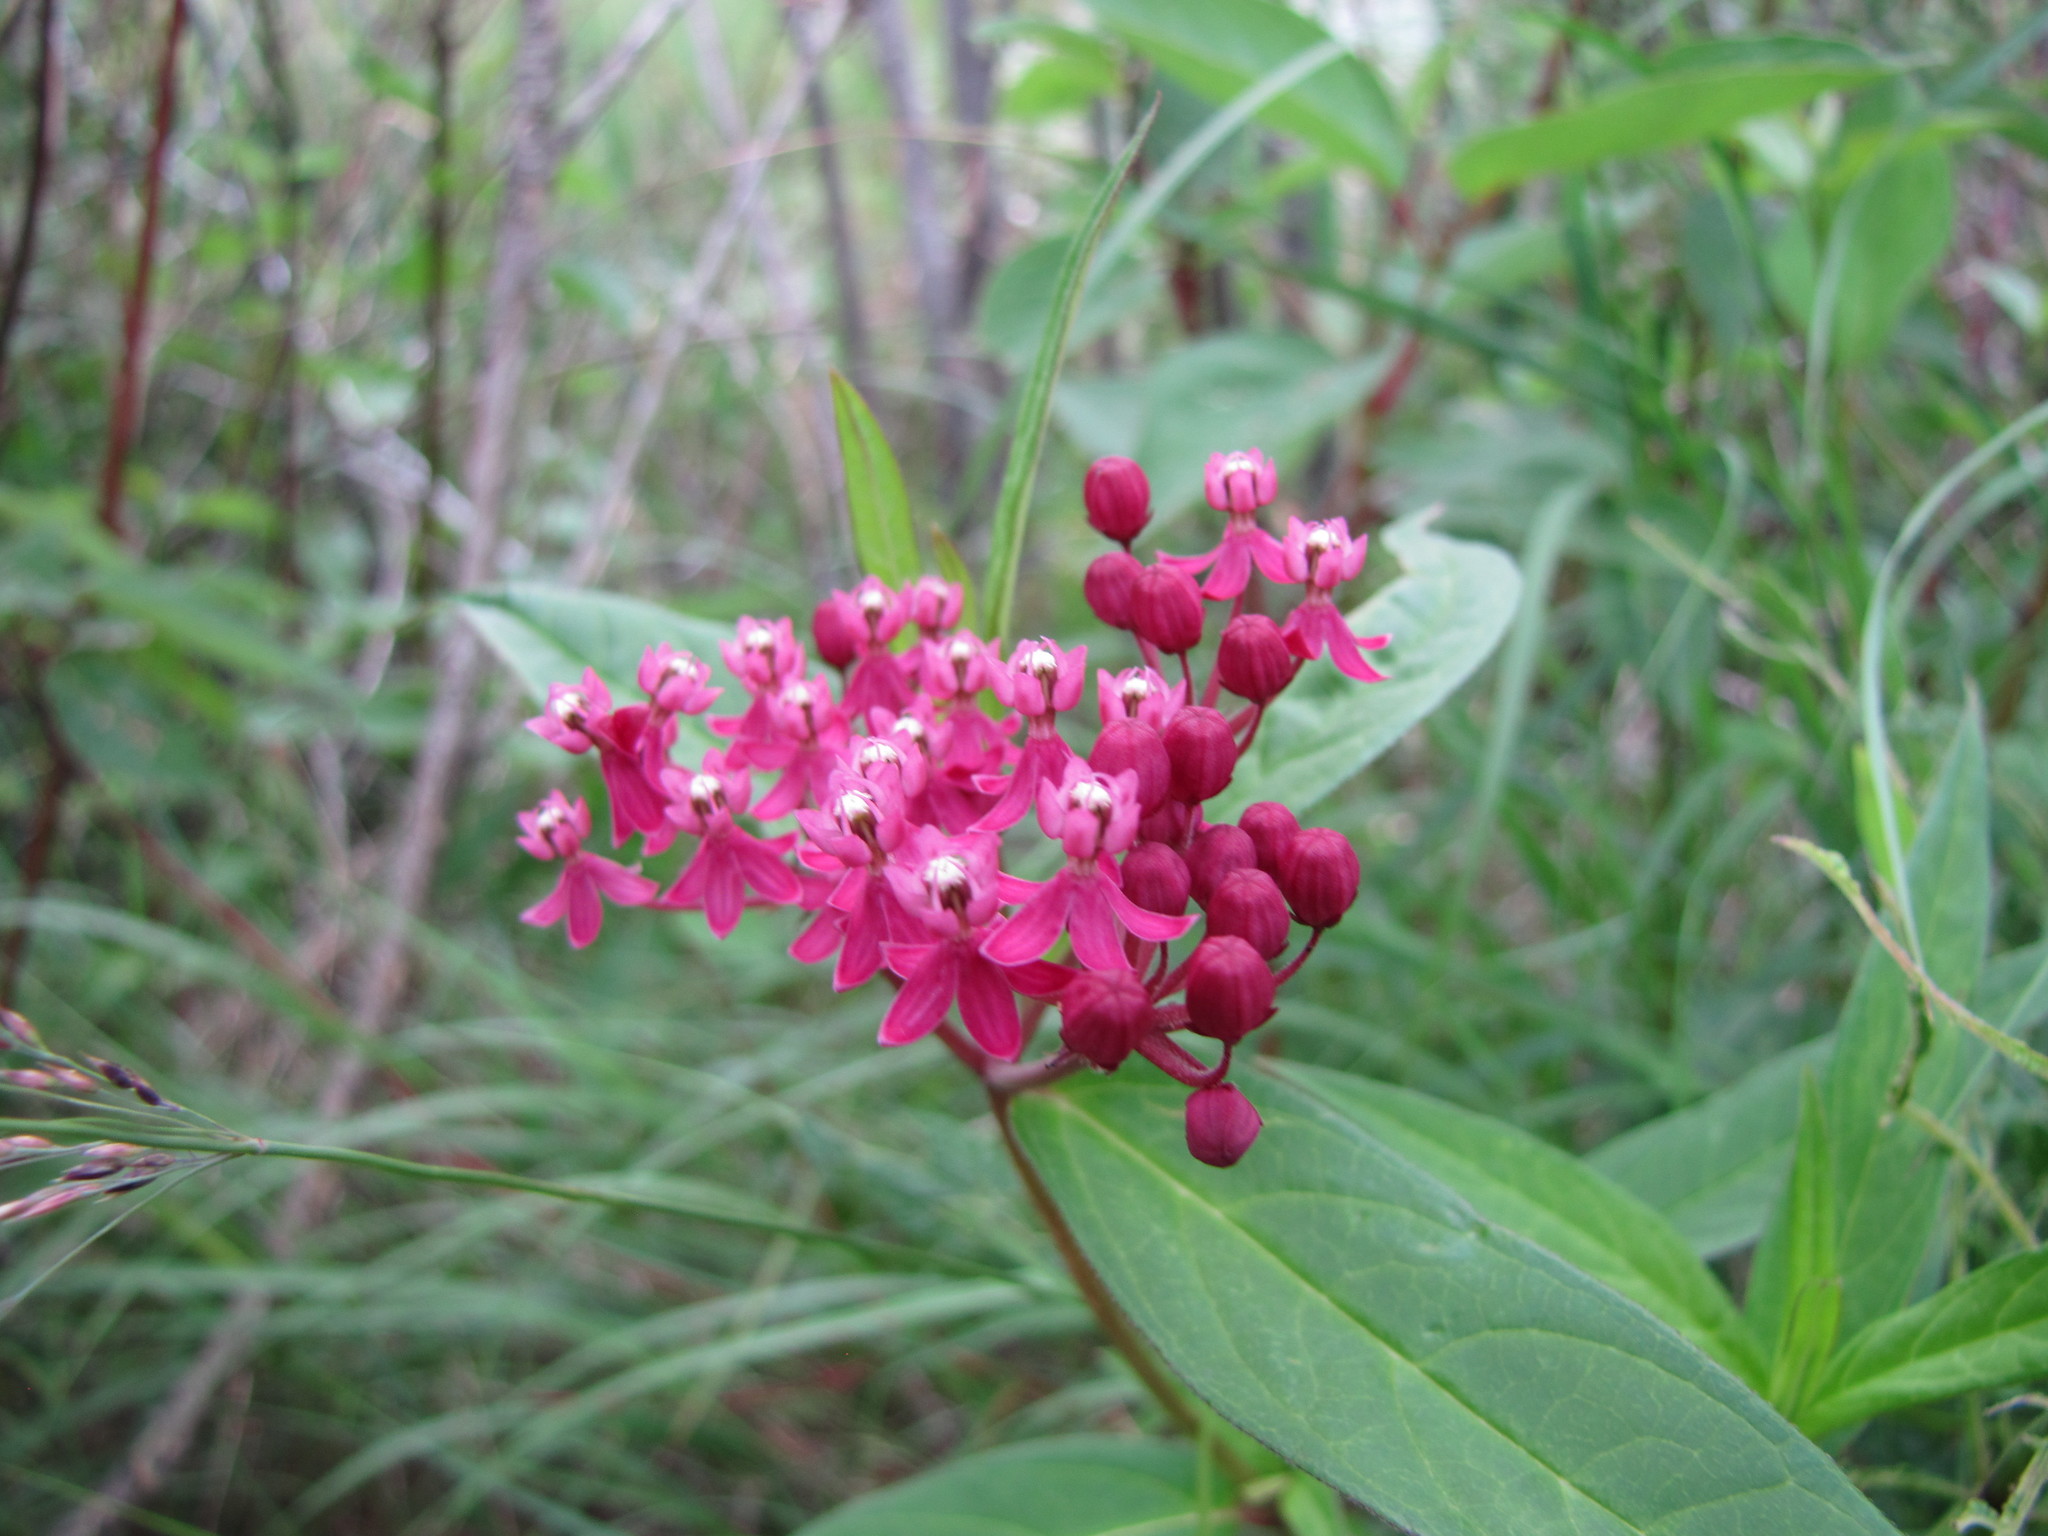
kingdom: Plantae
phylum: Tracheophyta
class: Magnoliopsida
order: Gentianales
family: Apocynaceae
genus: Asclepias
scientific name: Asclepias incarnata
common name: Swamp milkweed
